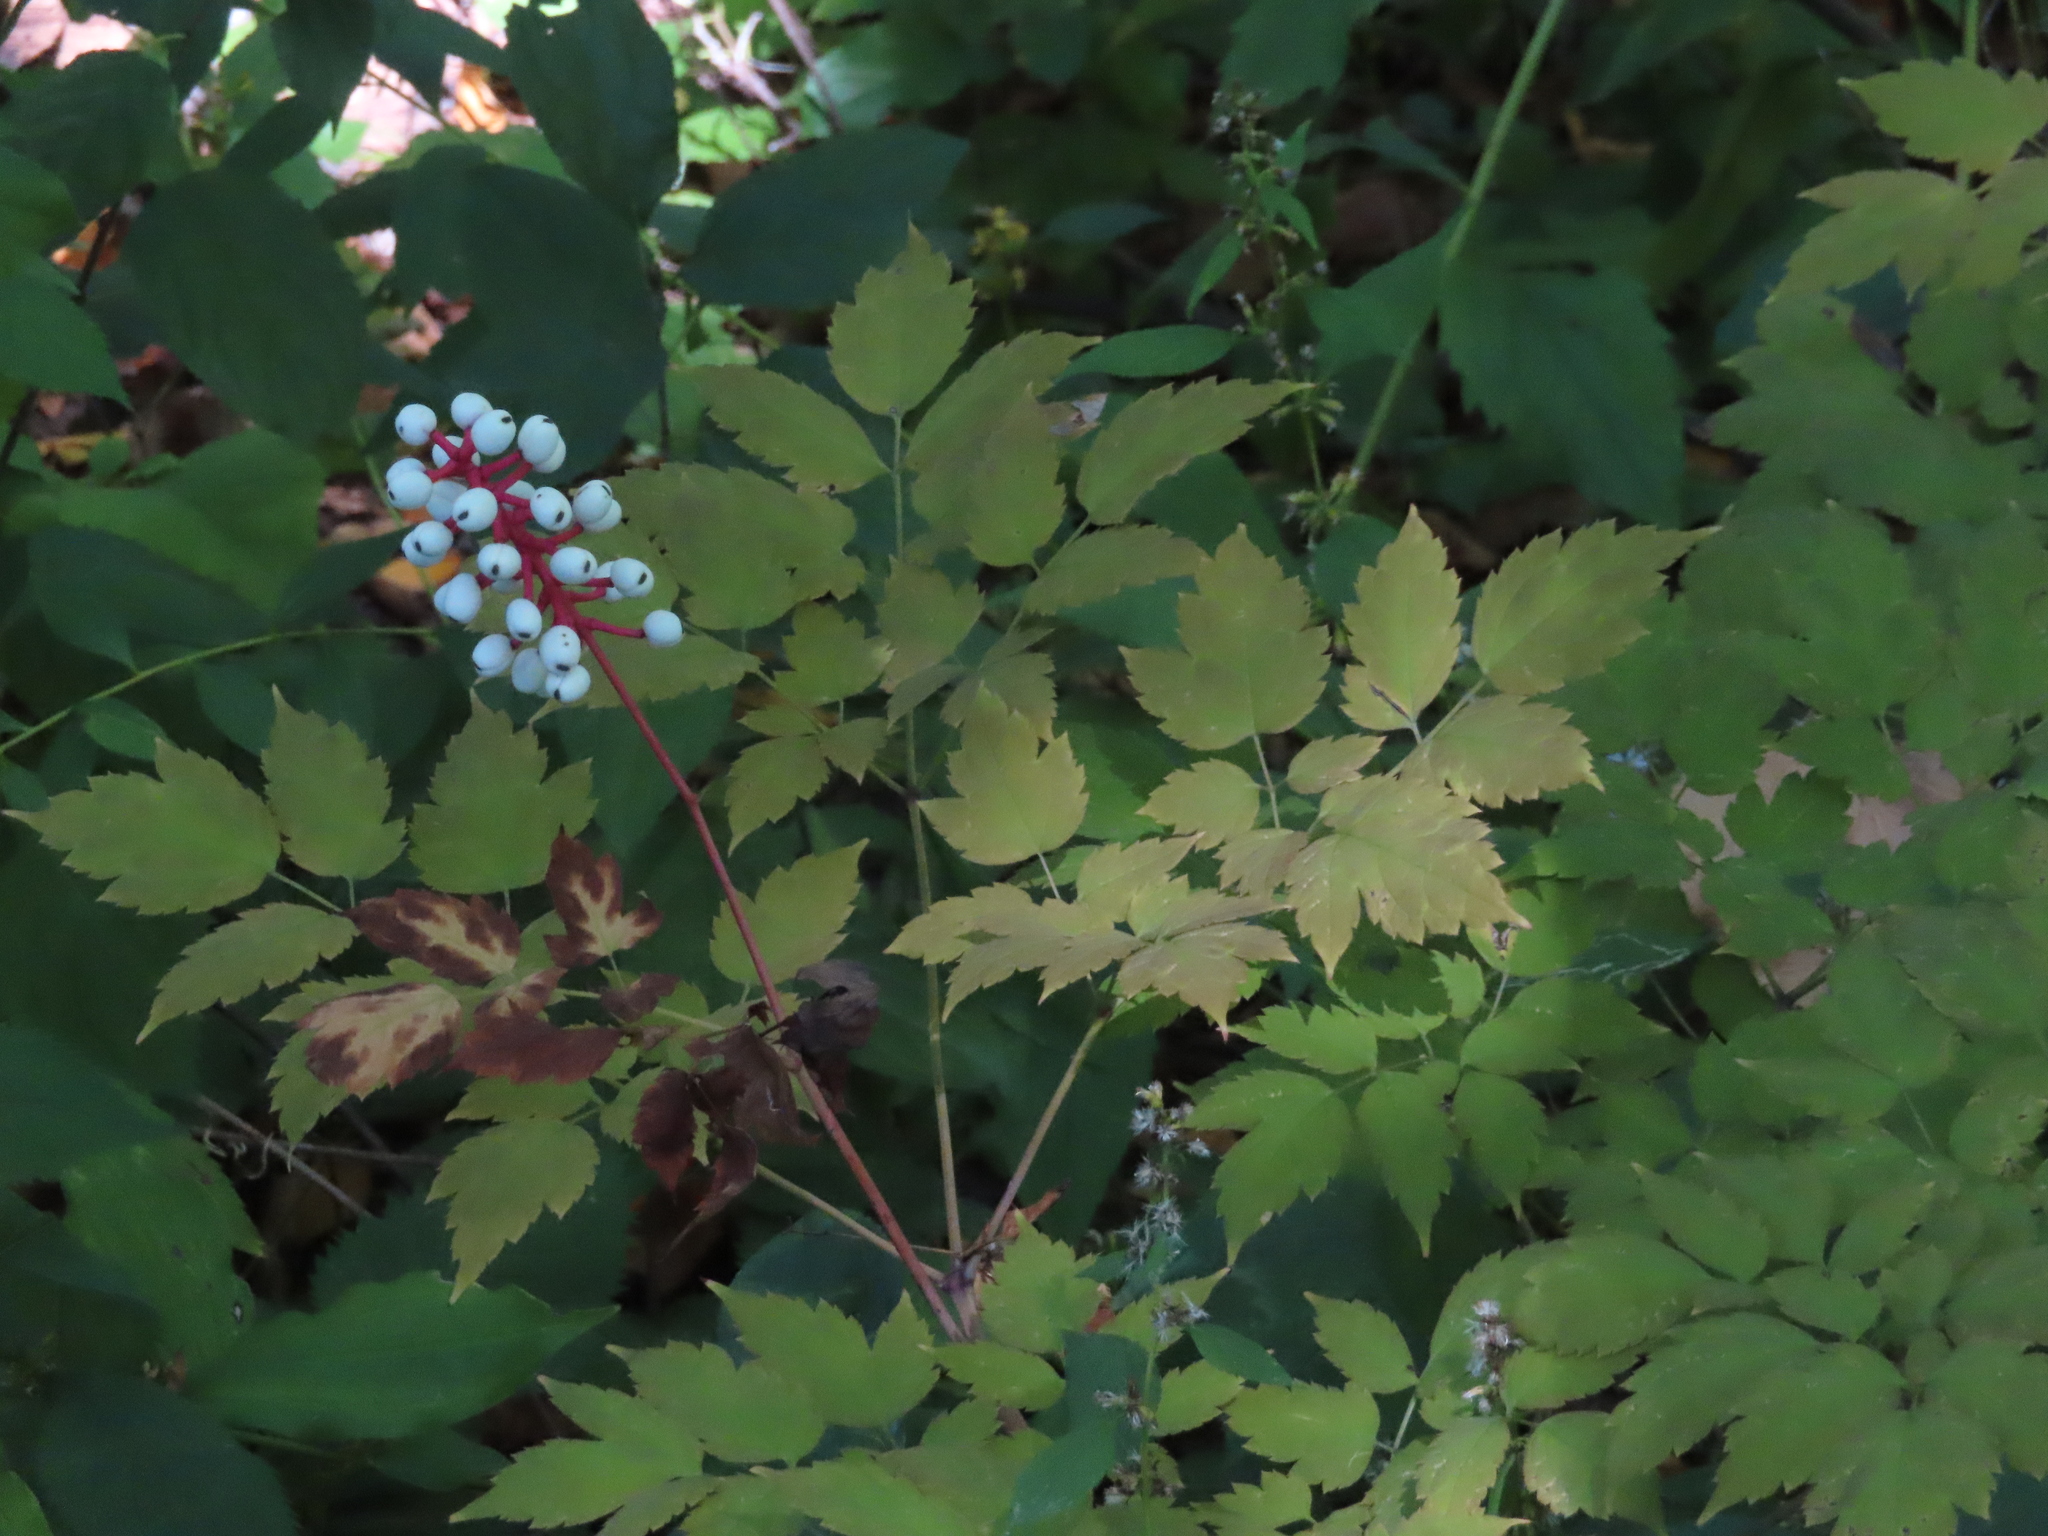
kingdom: Plantae
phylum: Tracheophyta
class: Magnoliopsida
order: Ranunculales
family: Ranunculaceae
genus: Actaea
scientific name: Actaea pachypoda
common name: Doll's-eyes
